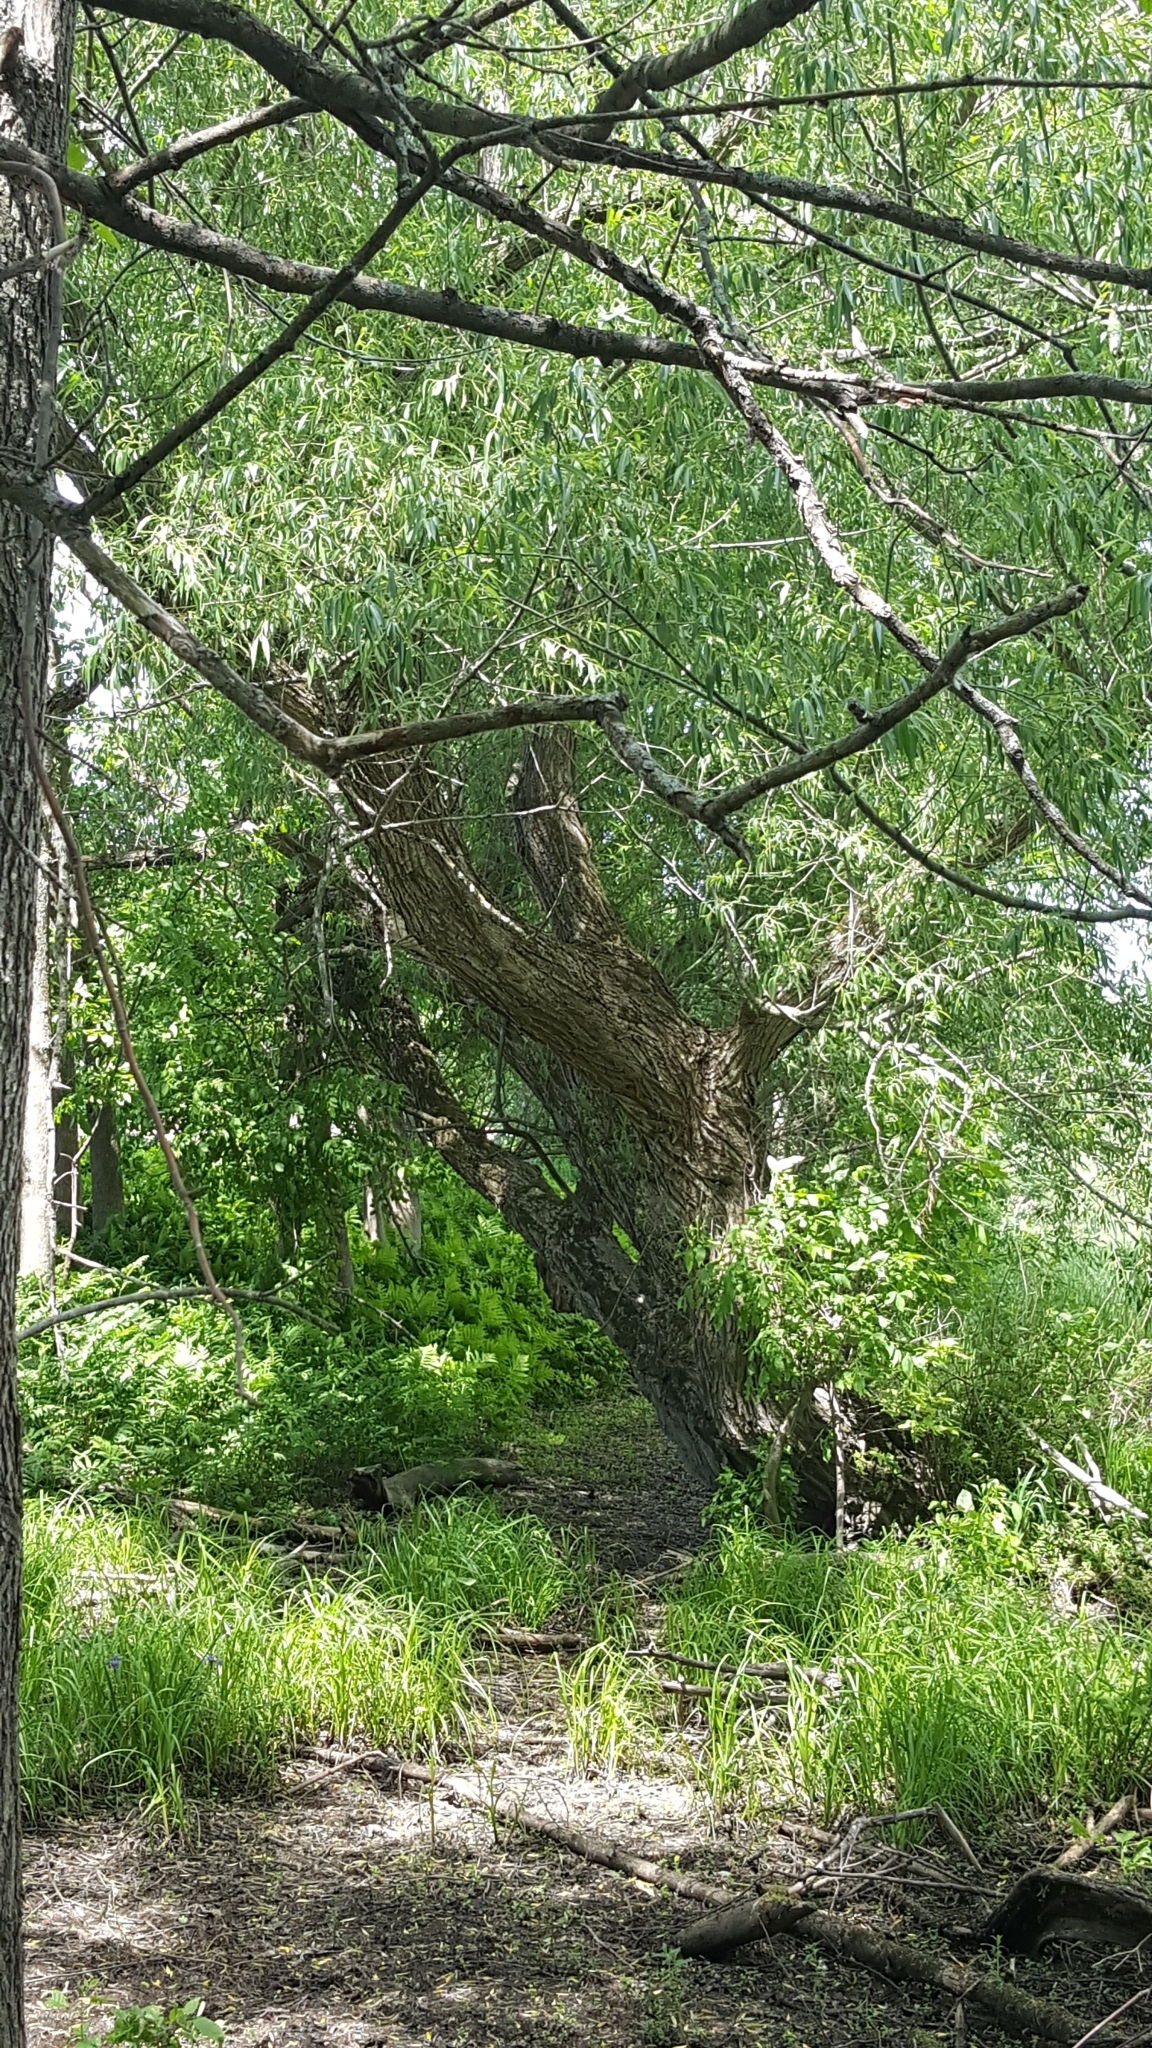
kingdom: Plantae
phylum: Tracheophyta
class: Magnoliopsida
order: Malpighiales
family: Salicaceae
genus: Salix
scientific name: Salix fragilis
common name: Crack willow
